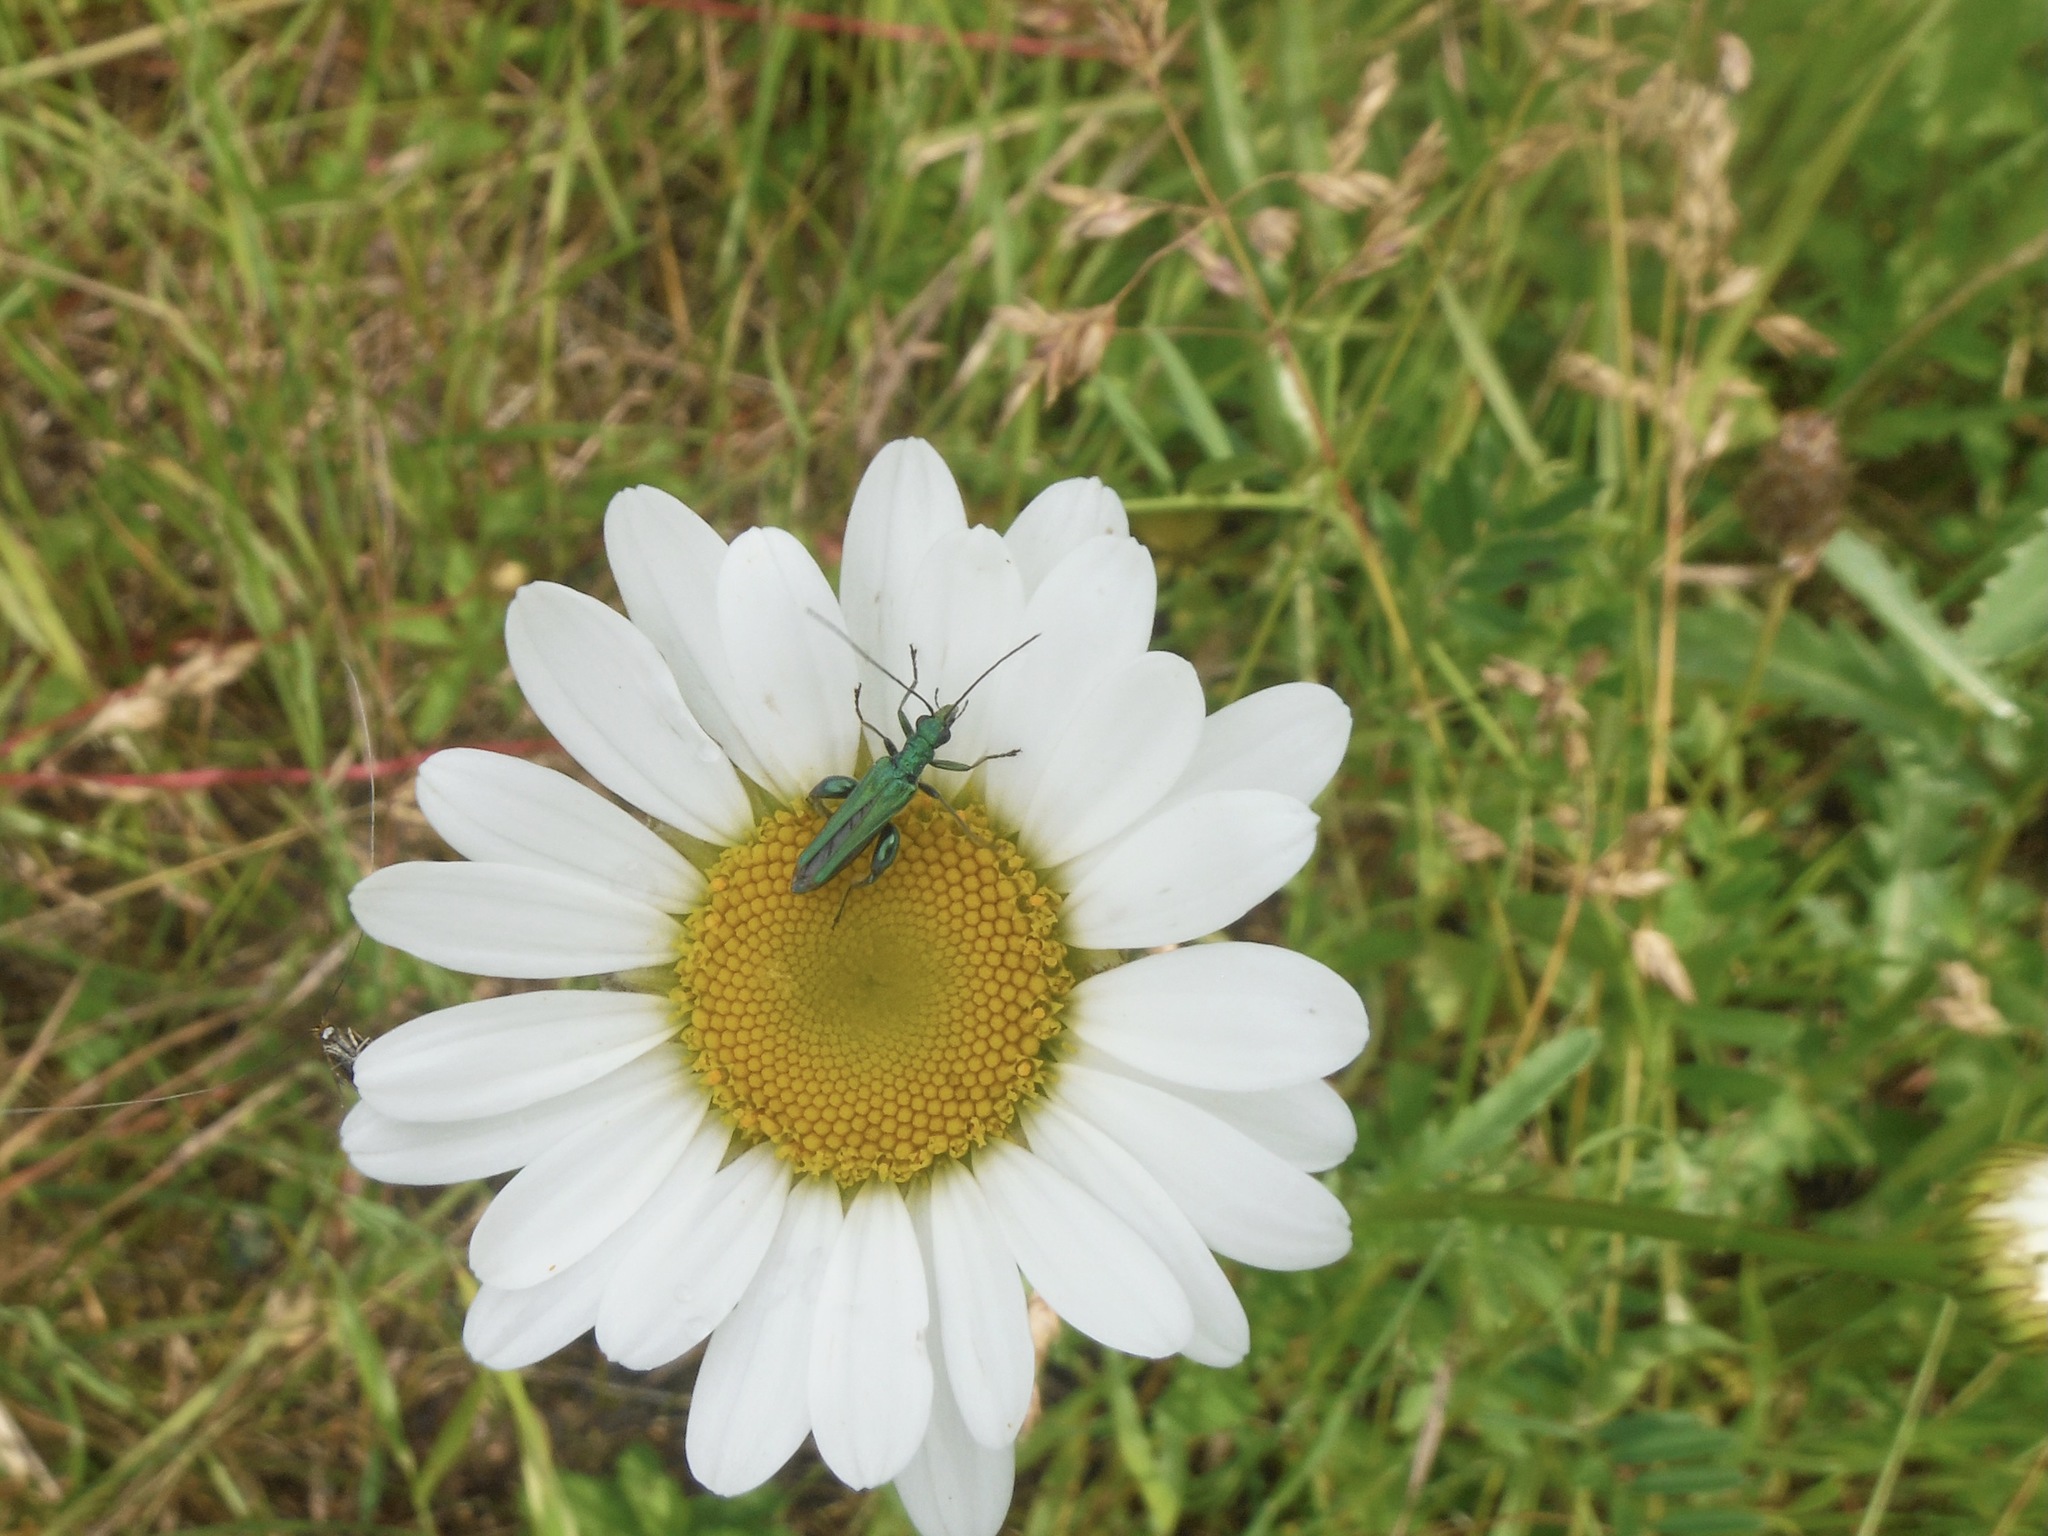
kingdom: Animalia
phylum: Arthropoda
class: Insecta
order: Coleoptera
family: Oedemeridae
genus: Oedemera
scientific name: Oedemera nobilis
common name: Swollen-thighed beetle
